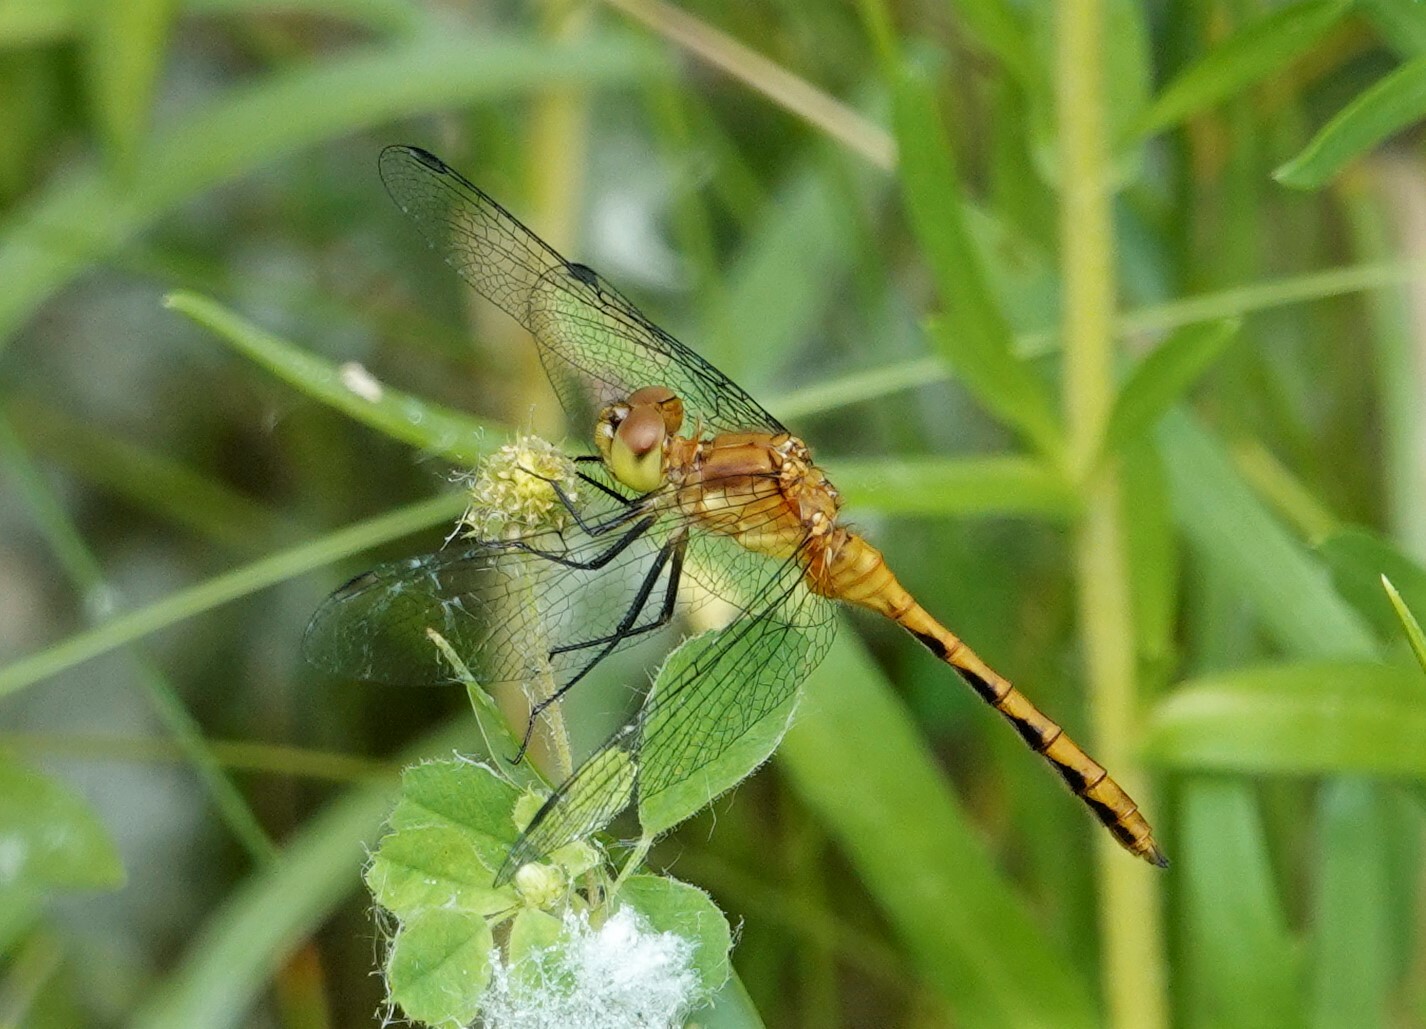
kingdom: Animalia
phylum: Arthropoda
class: Insecta
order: Odonata
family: Libellulidae
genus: Sympetrum
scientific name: Sympetrum
